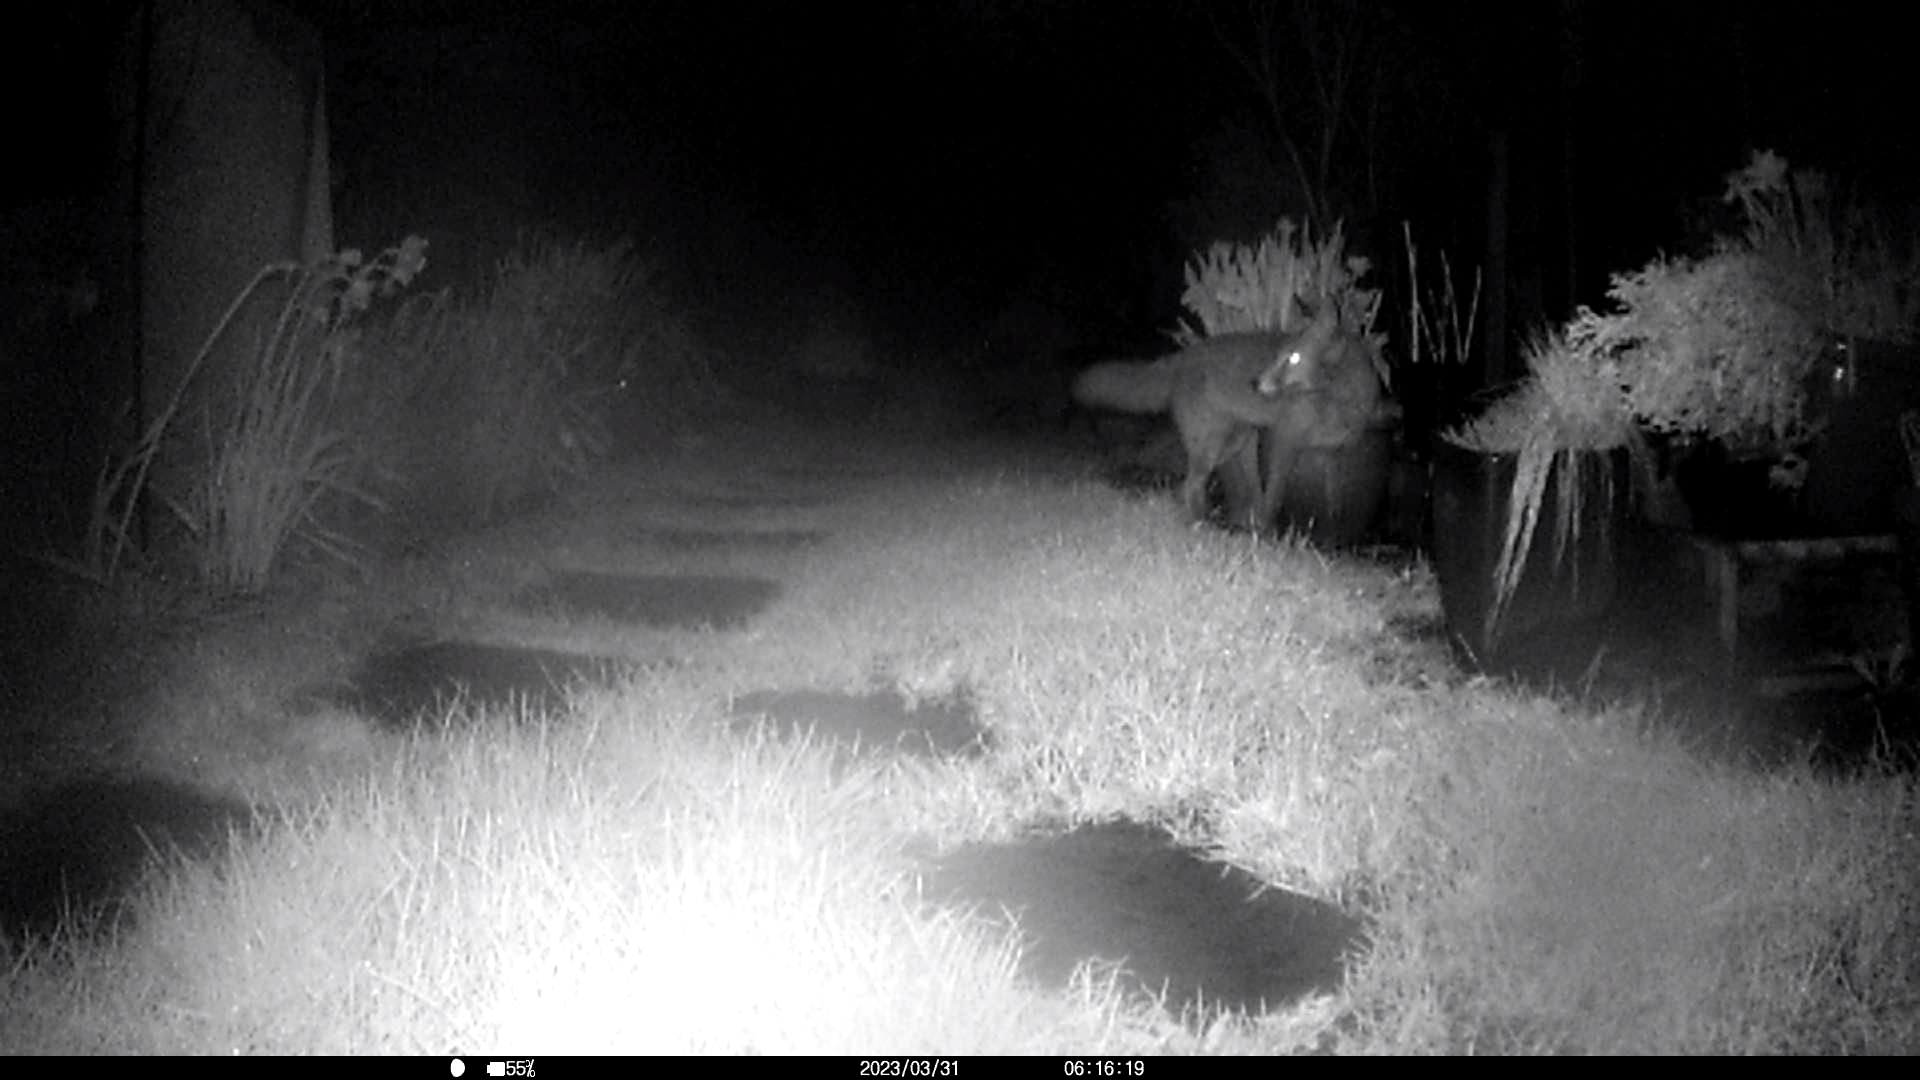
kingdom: Animalia
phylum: Chordata
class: Mammalia
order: Carnivora
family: Canidae
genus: Vulpes
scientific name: Vulpes vulpes
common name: Red fox
